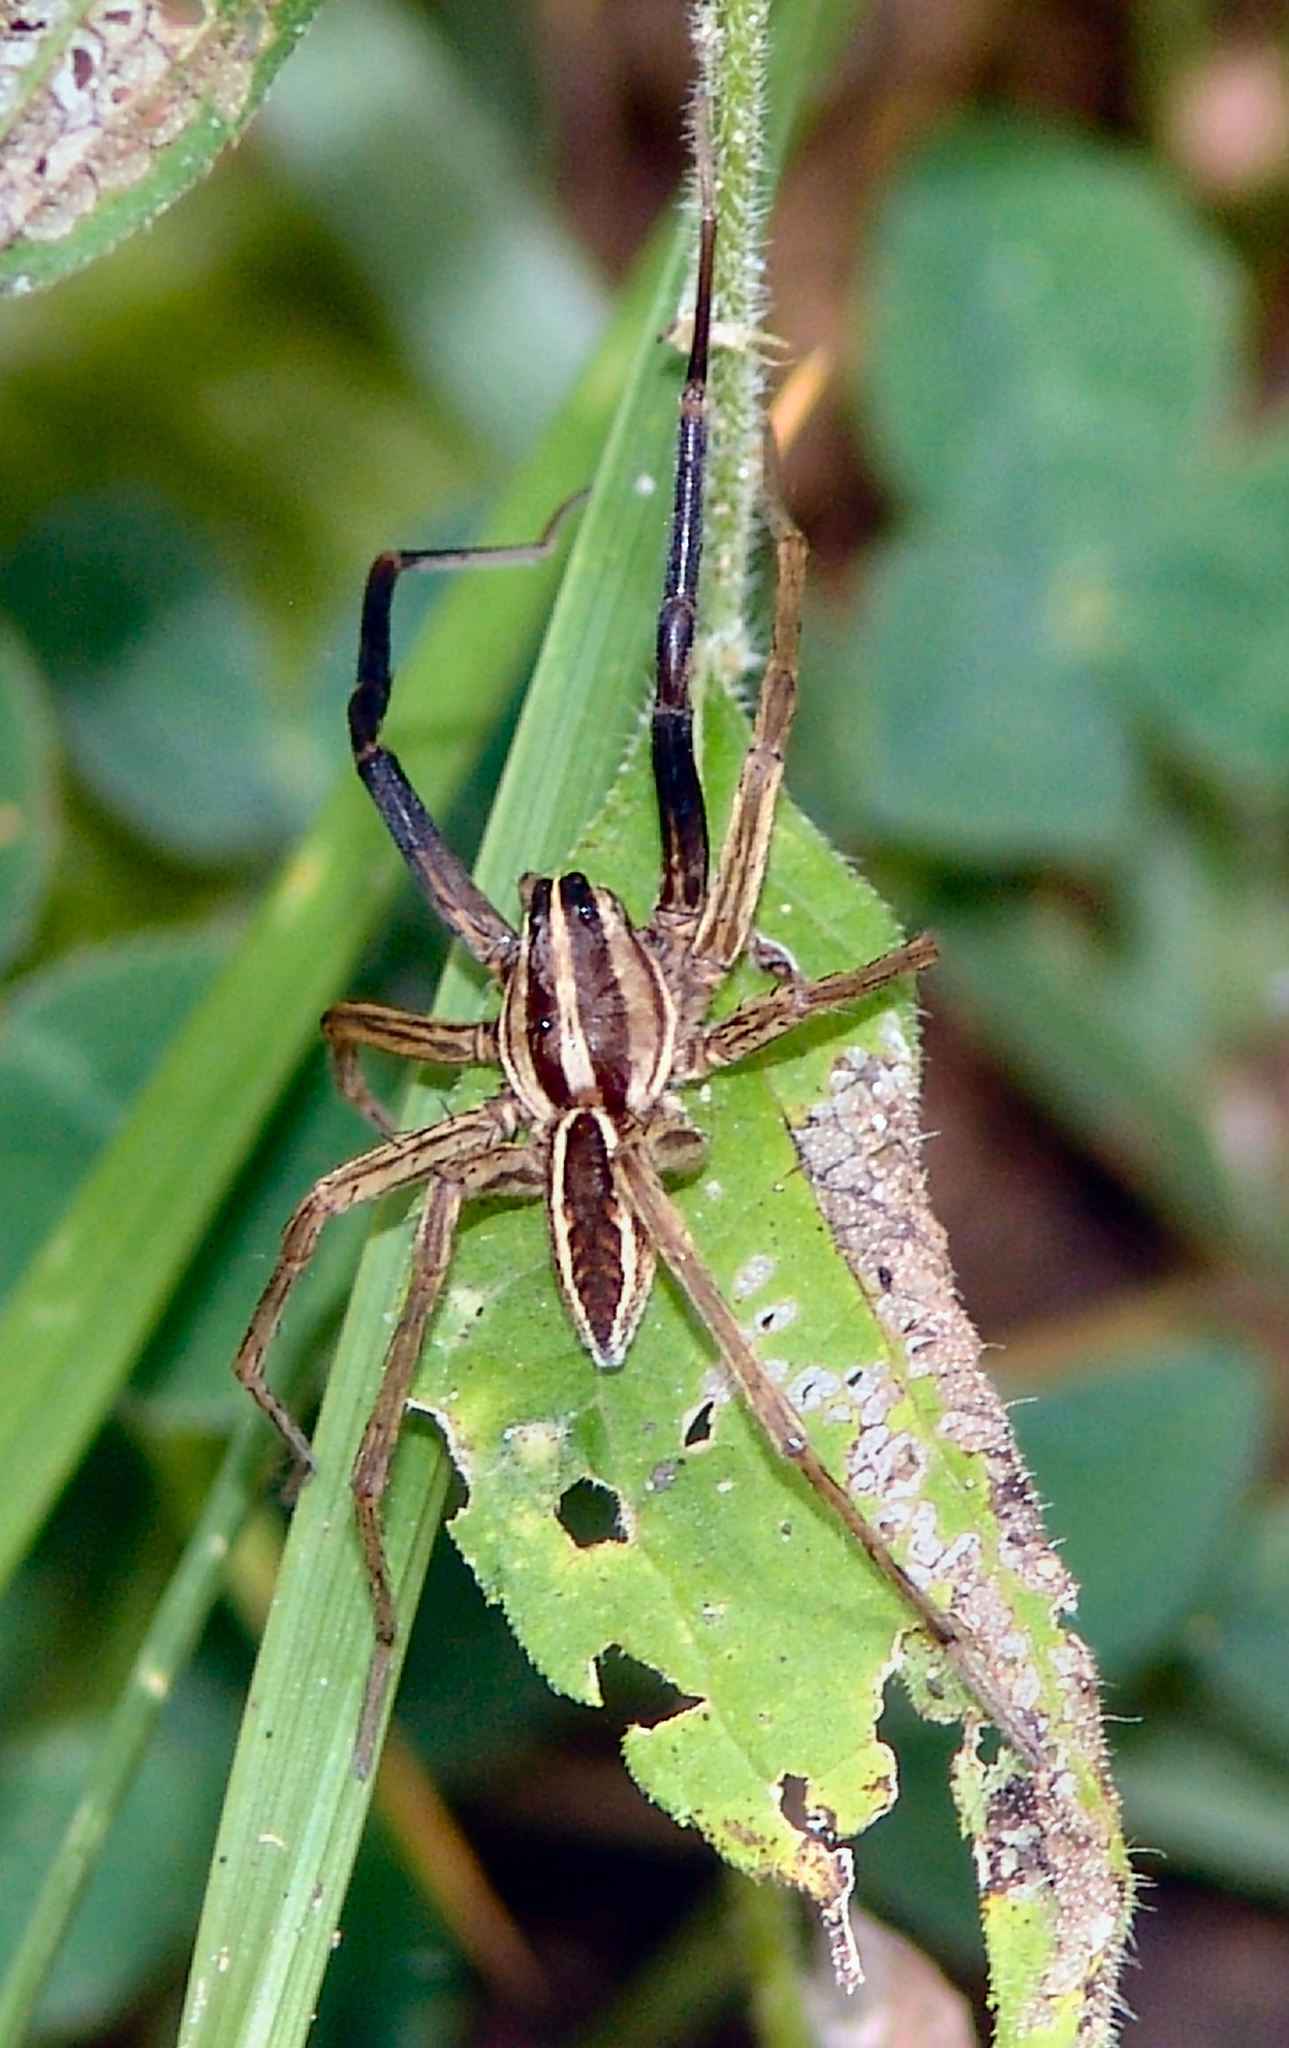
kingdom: Animalia
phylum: Arthropoda
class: Arachnida
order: Araneae
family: Lycosidae
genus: Rabidosa
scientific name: Rabidosa rabida
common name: Rabid wolf spider
